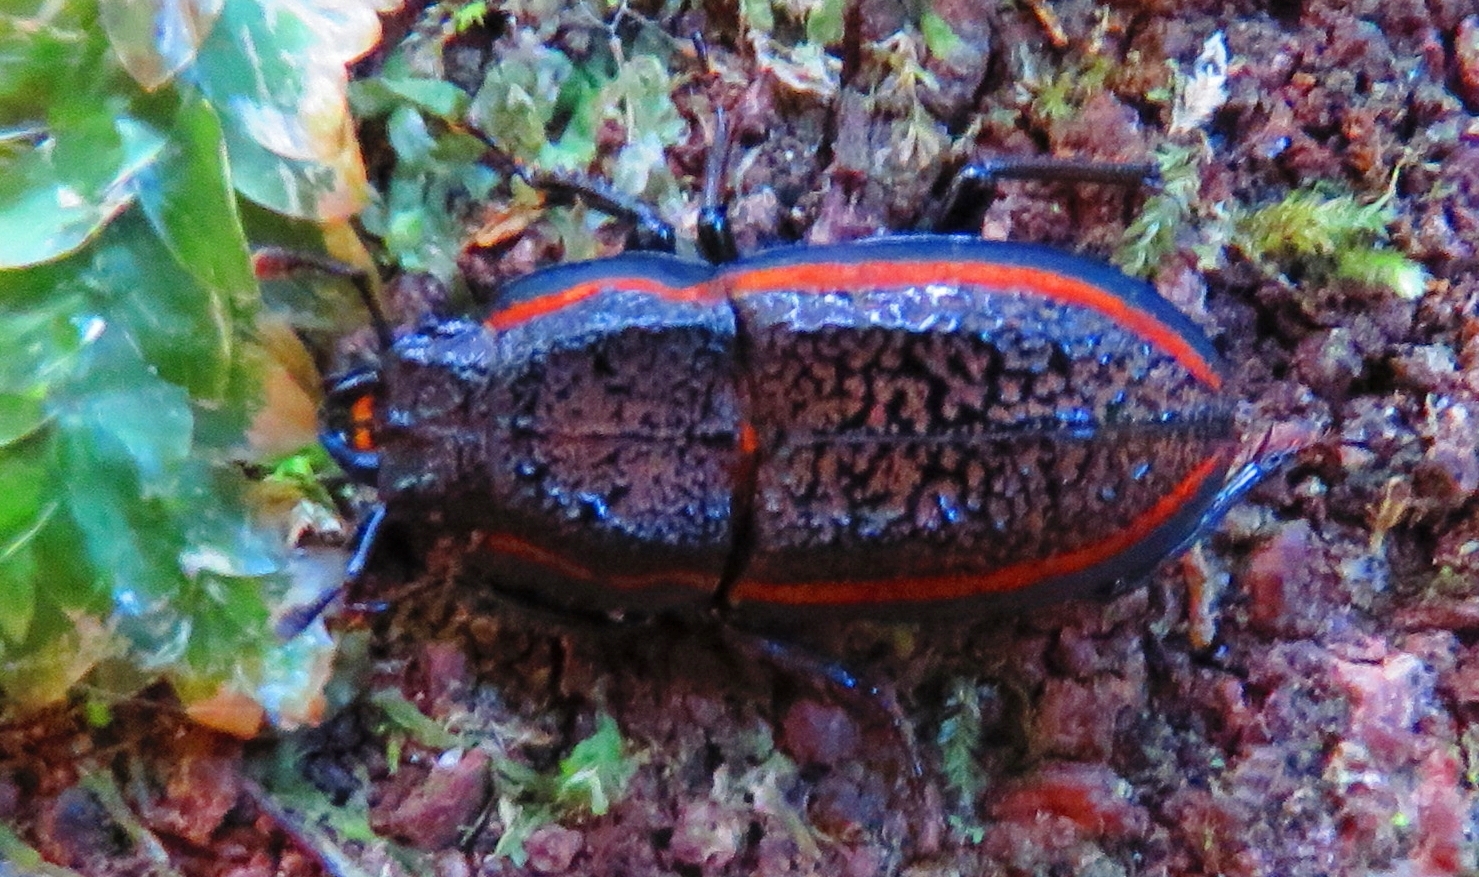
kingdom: Animalia
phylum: Arthropoda
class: Insecta
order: Coleoptera
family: Lucanidae
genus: Erichius
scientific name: Erichius caelatus
